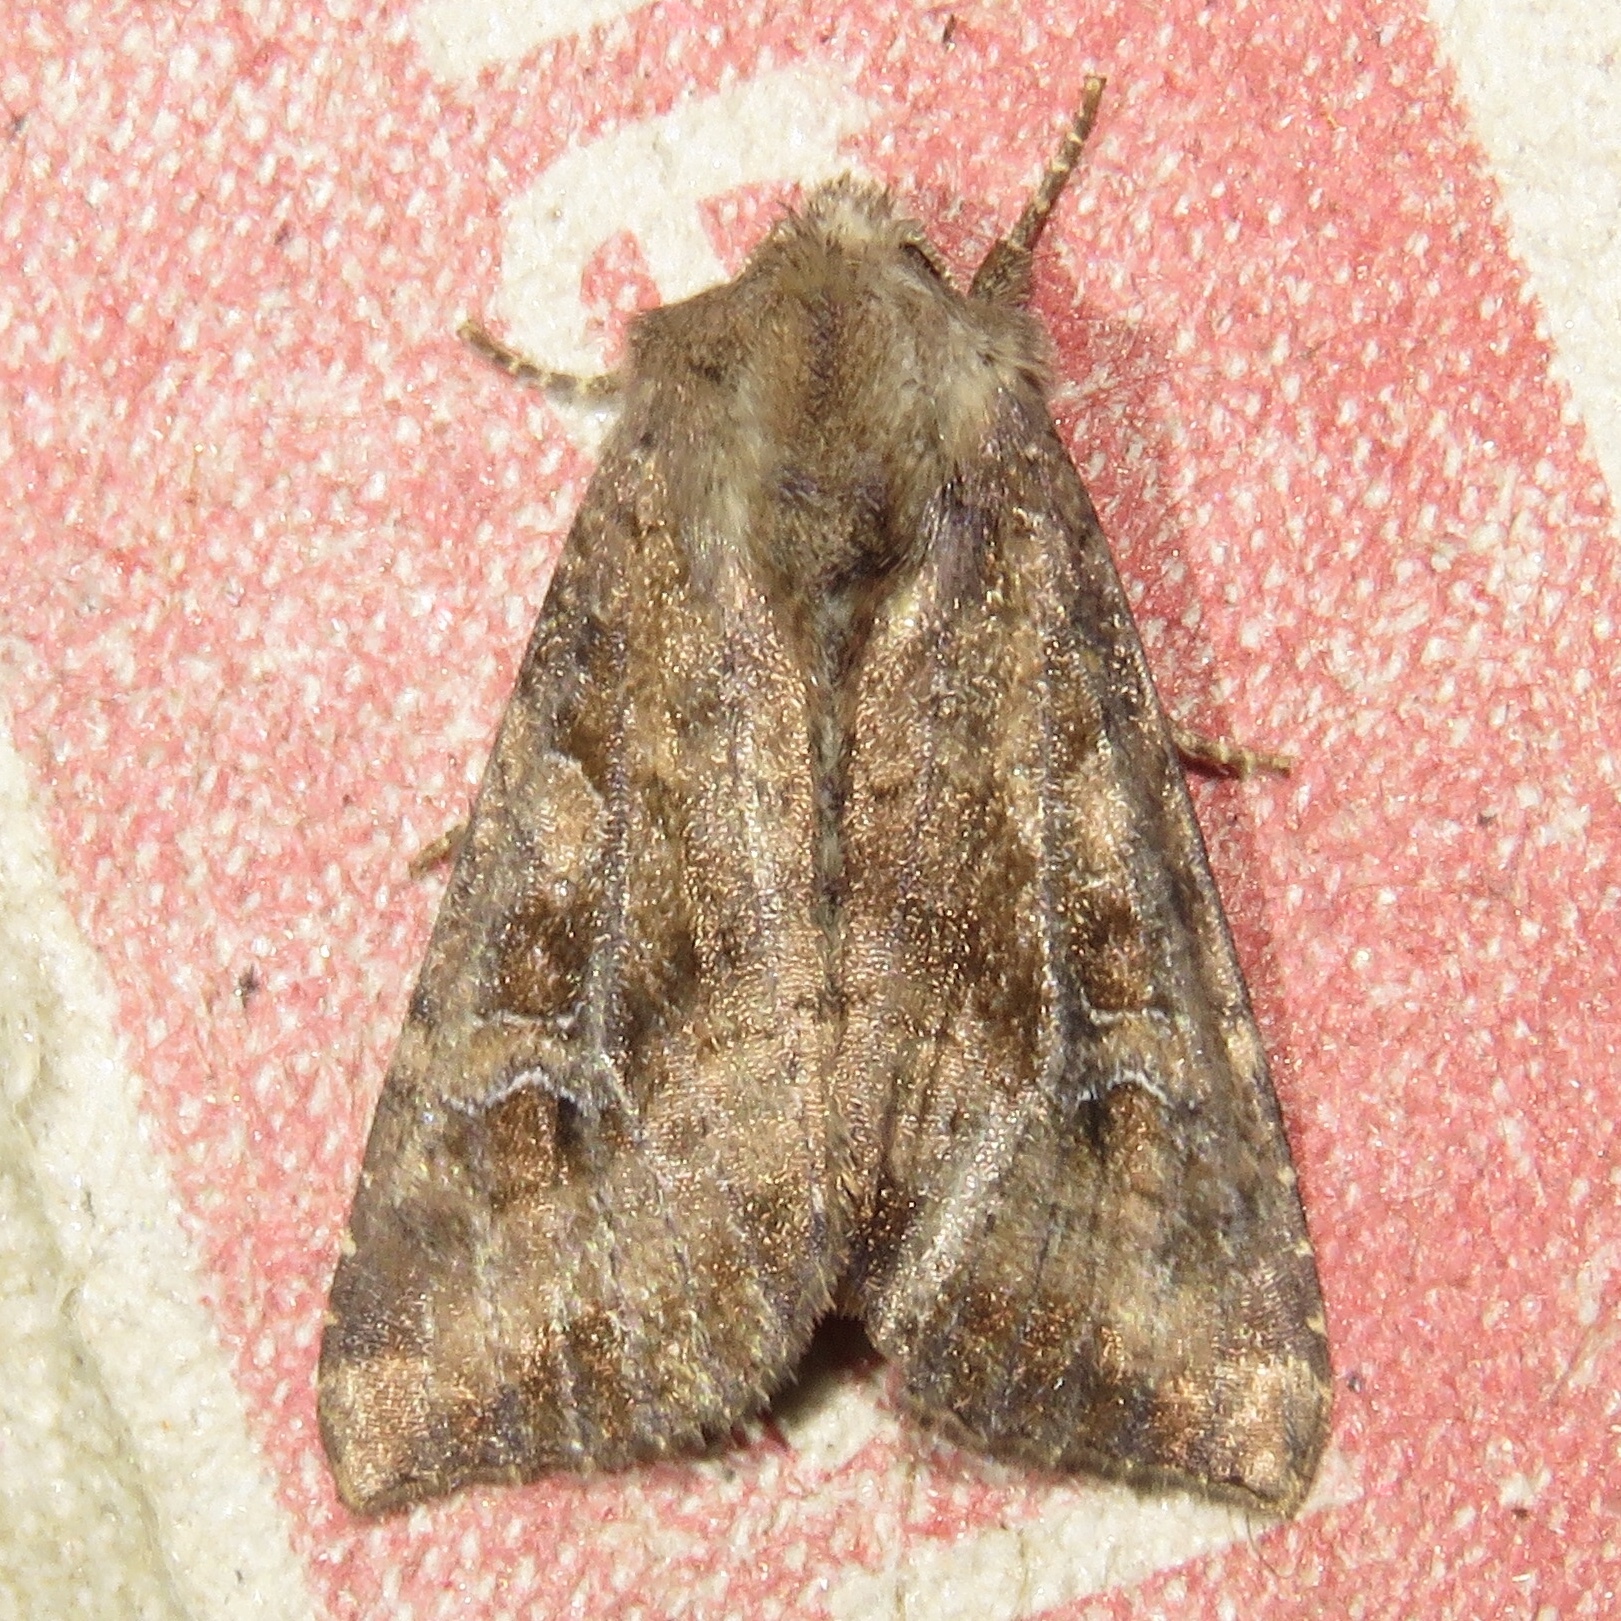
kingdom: Animalia
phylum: Arthropoda
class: Insecta
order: Lepidoptera
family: Noctuidae
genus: Loscopia
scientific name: Loscopia velata
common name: Veiled ear moth
